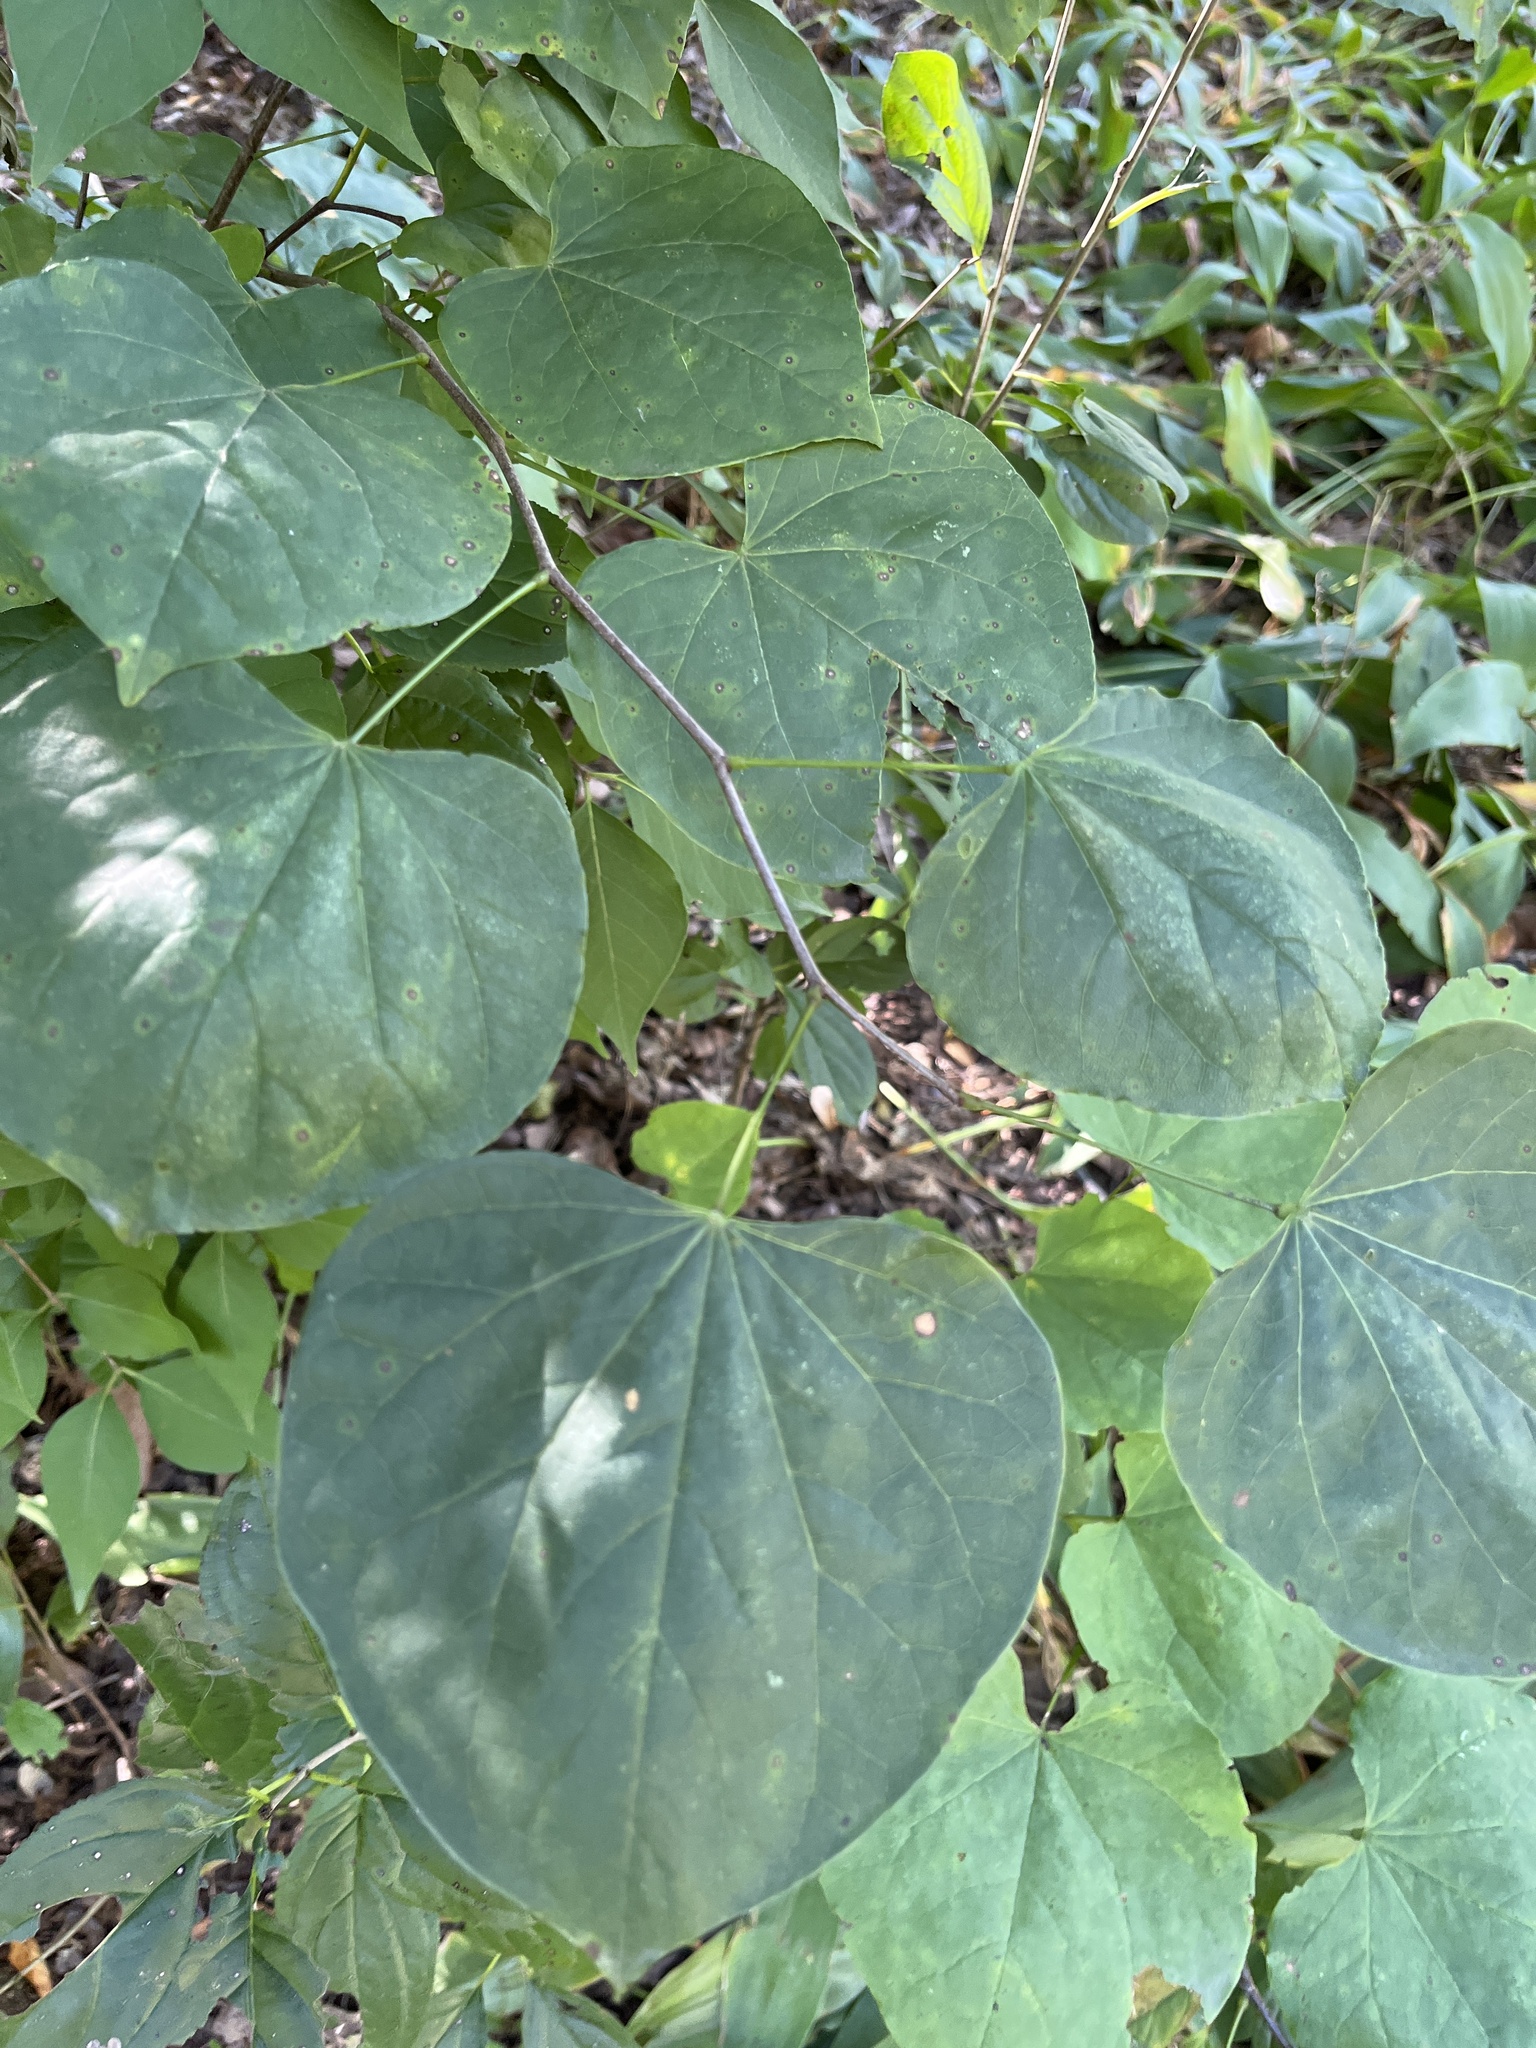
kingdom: Plantae
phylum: Tracheophyta
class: Magnoliopsida
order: Fabales
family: Fabaceae
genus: Cercis
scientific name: Cercis canadensis
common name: Eastern redbud
